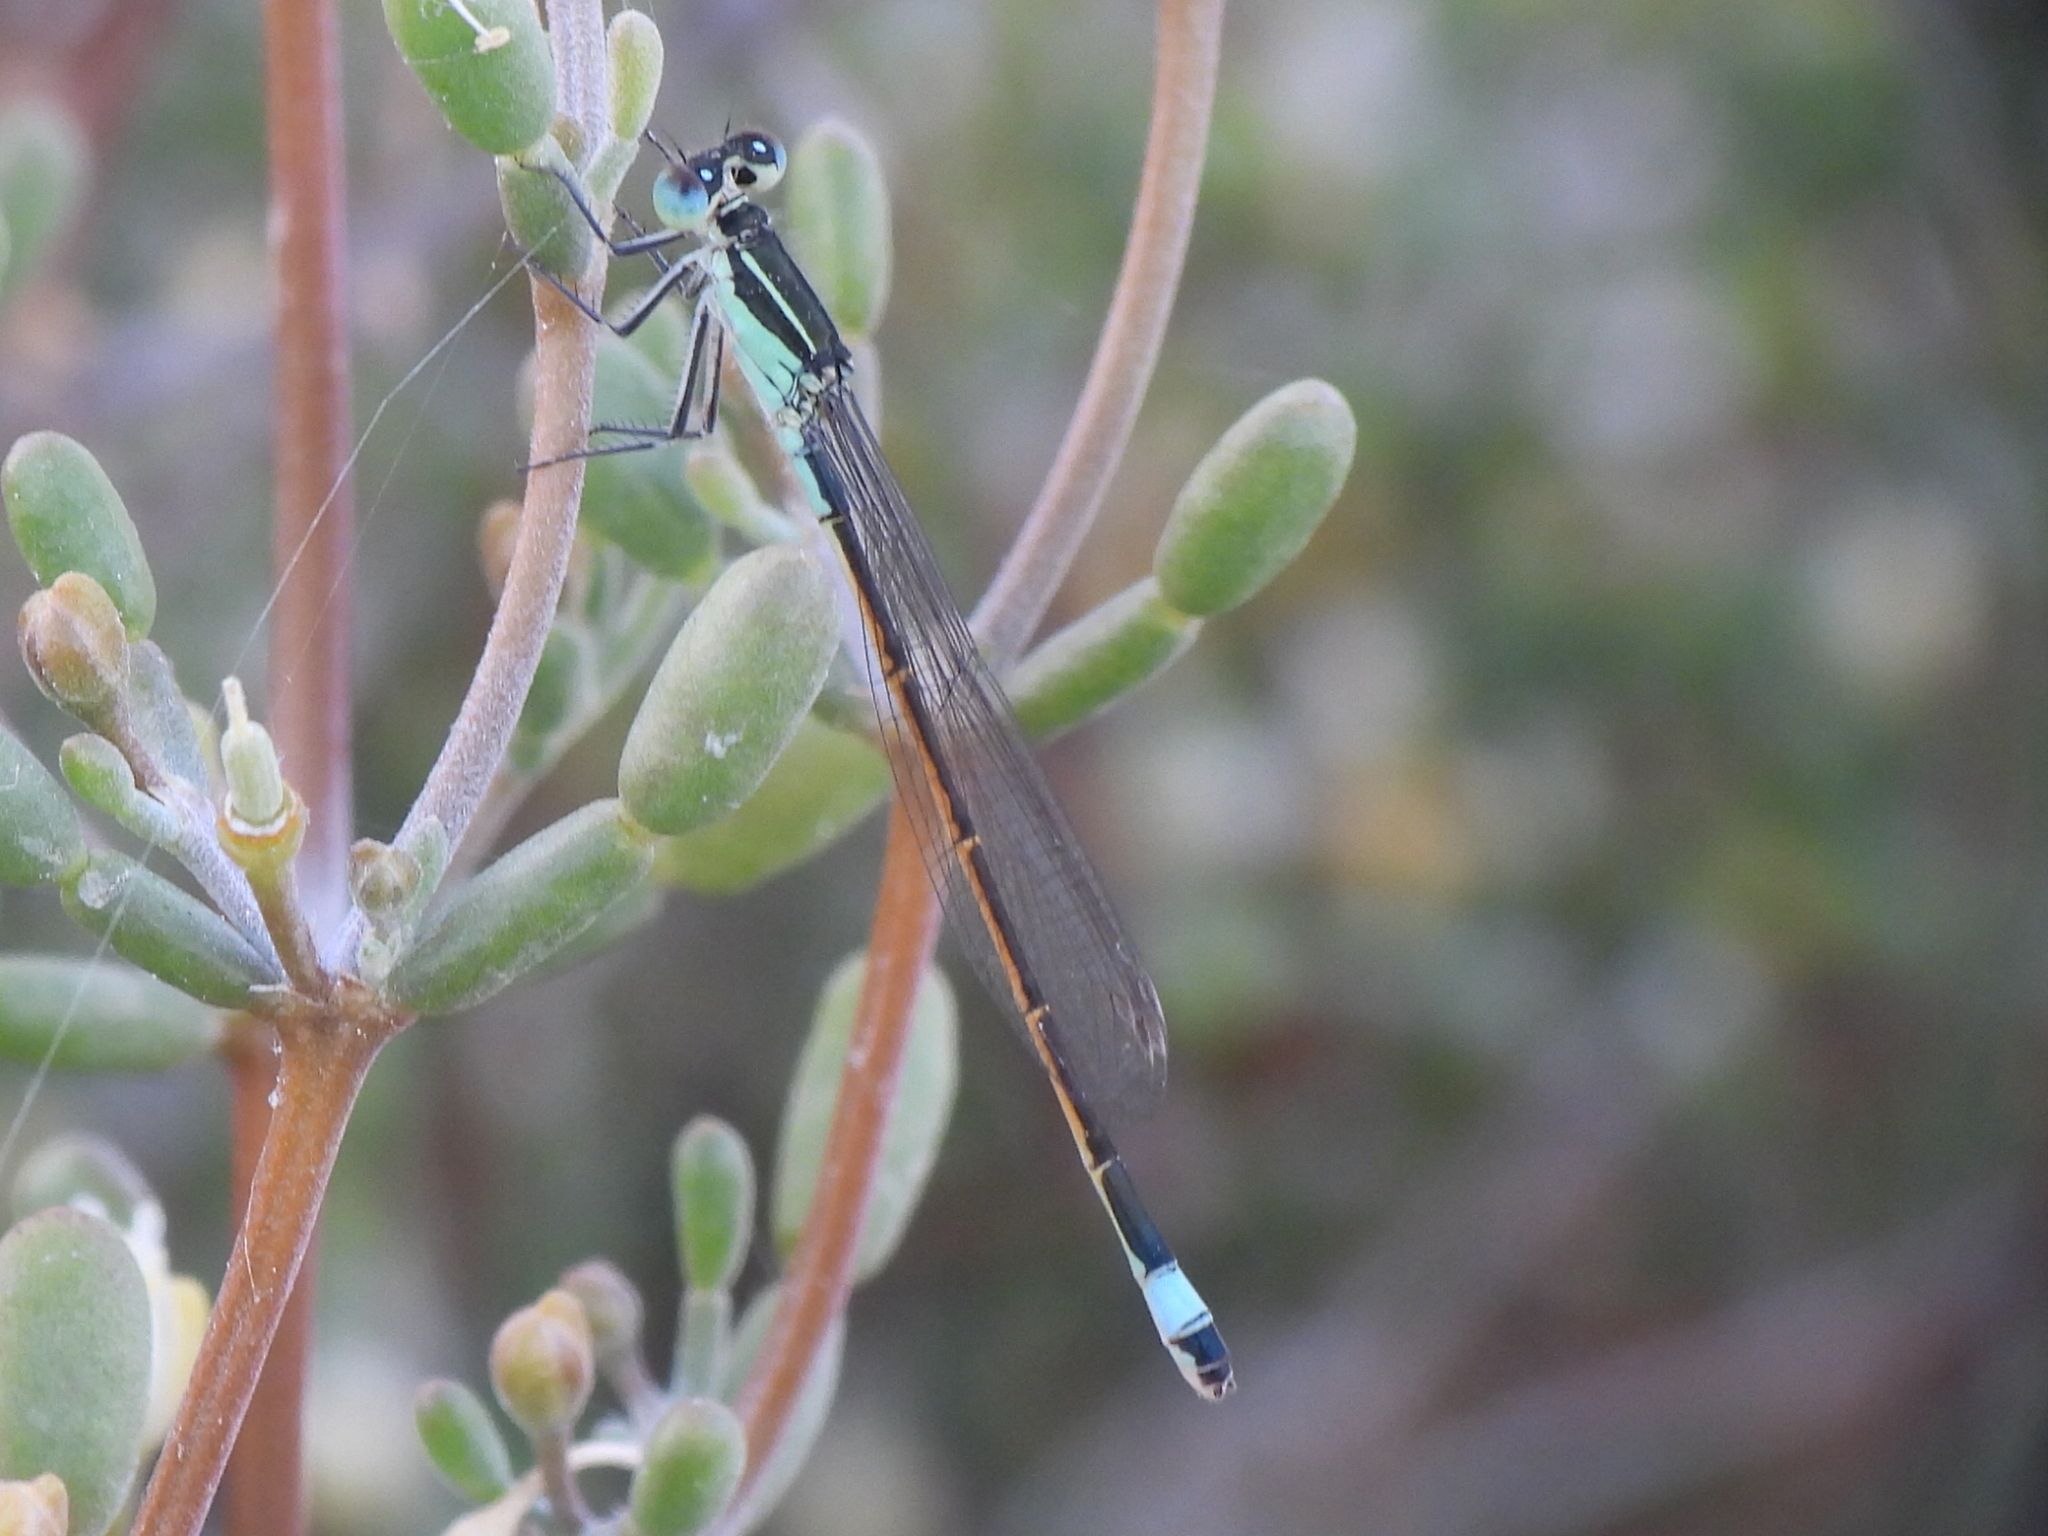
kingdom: Animalia
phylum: Arthropoda
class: Insecta
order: Odonata
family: Coenagrionidae
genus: Ischnura
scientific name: Ischnura evansi
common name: Desert bluetail
